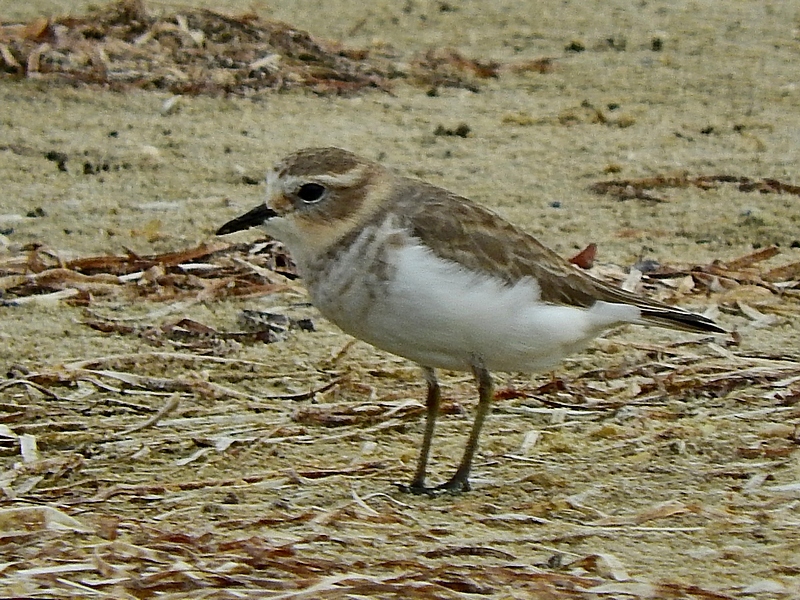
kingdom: Animalia
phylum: Chordata
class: Aves
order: Charadriiformes
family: Charadriidae
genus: Anarhynchus
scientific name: Anarhynchus
